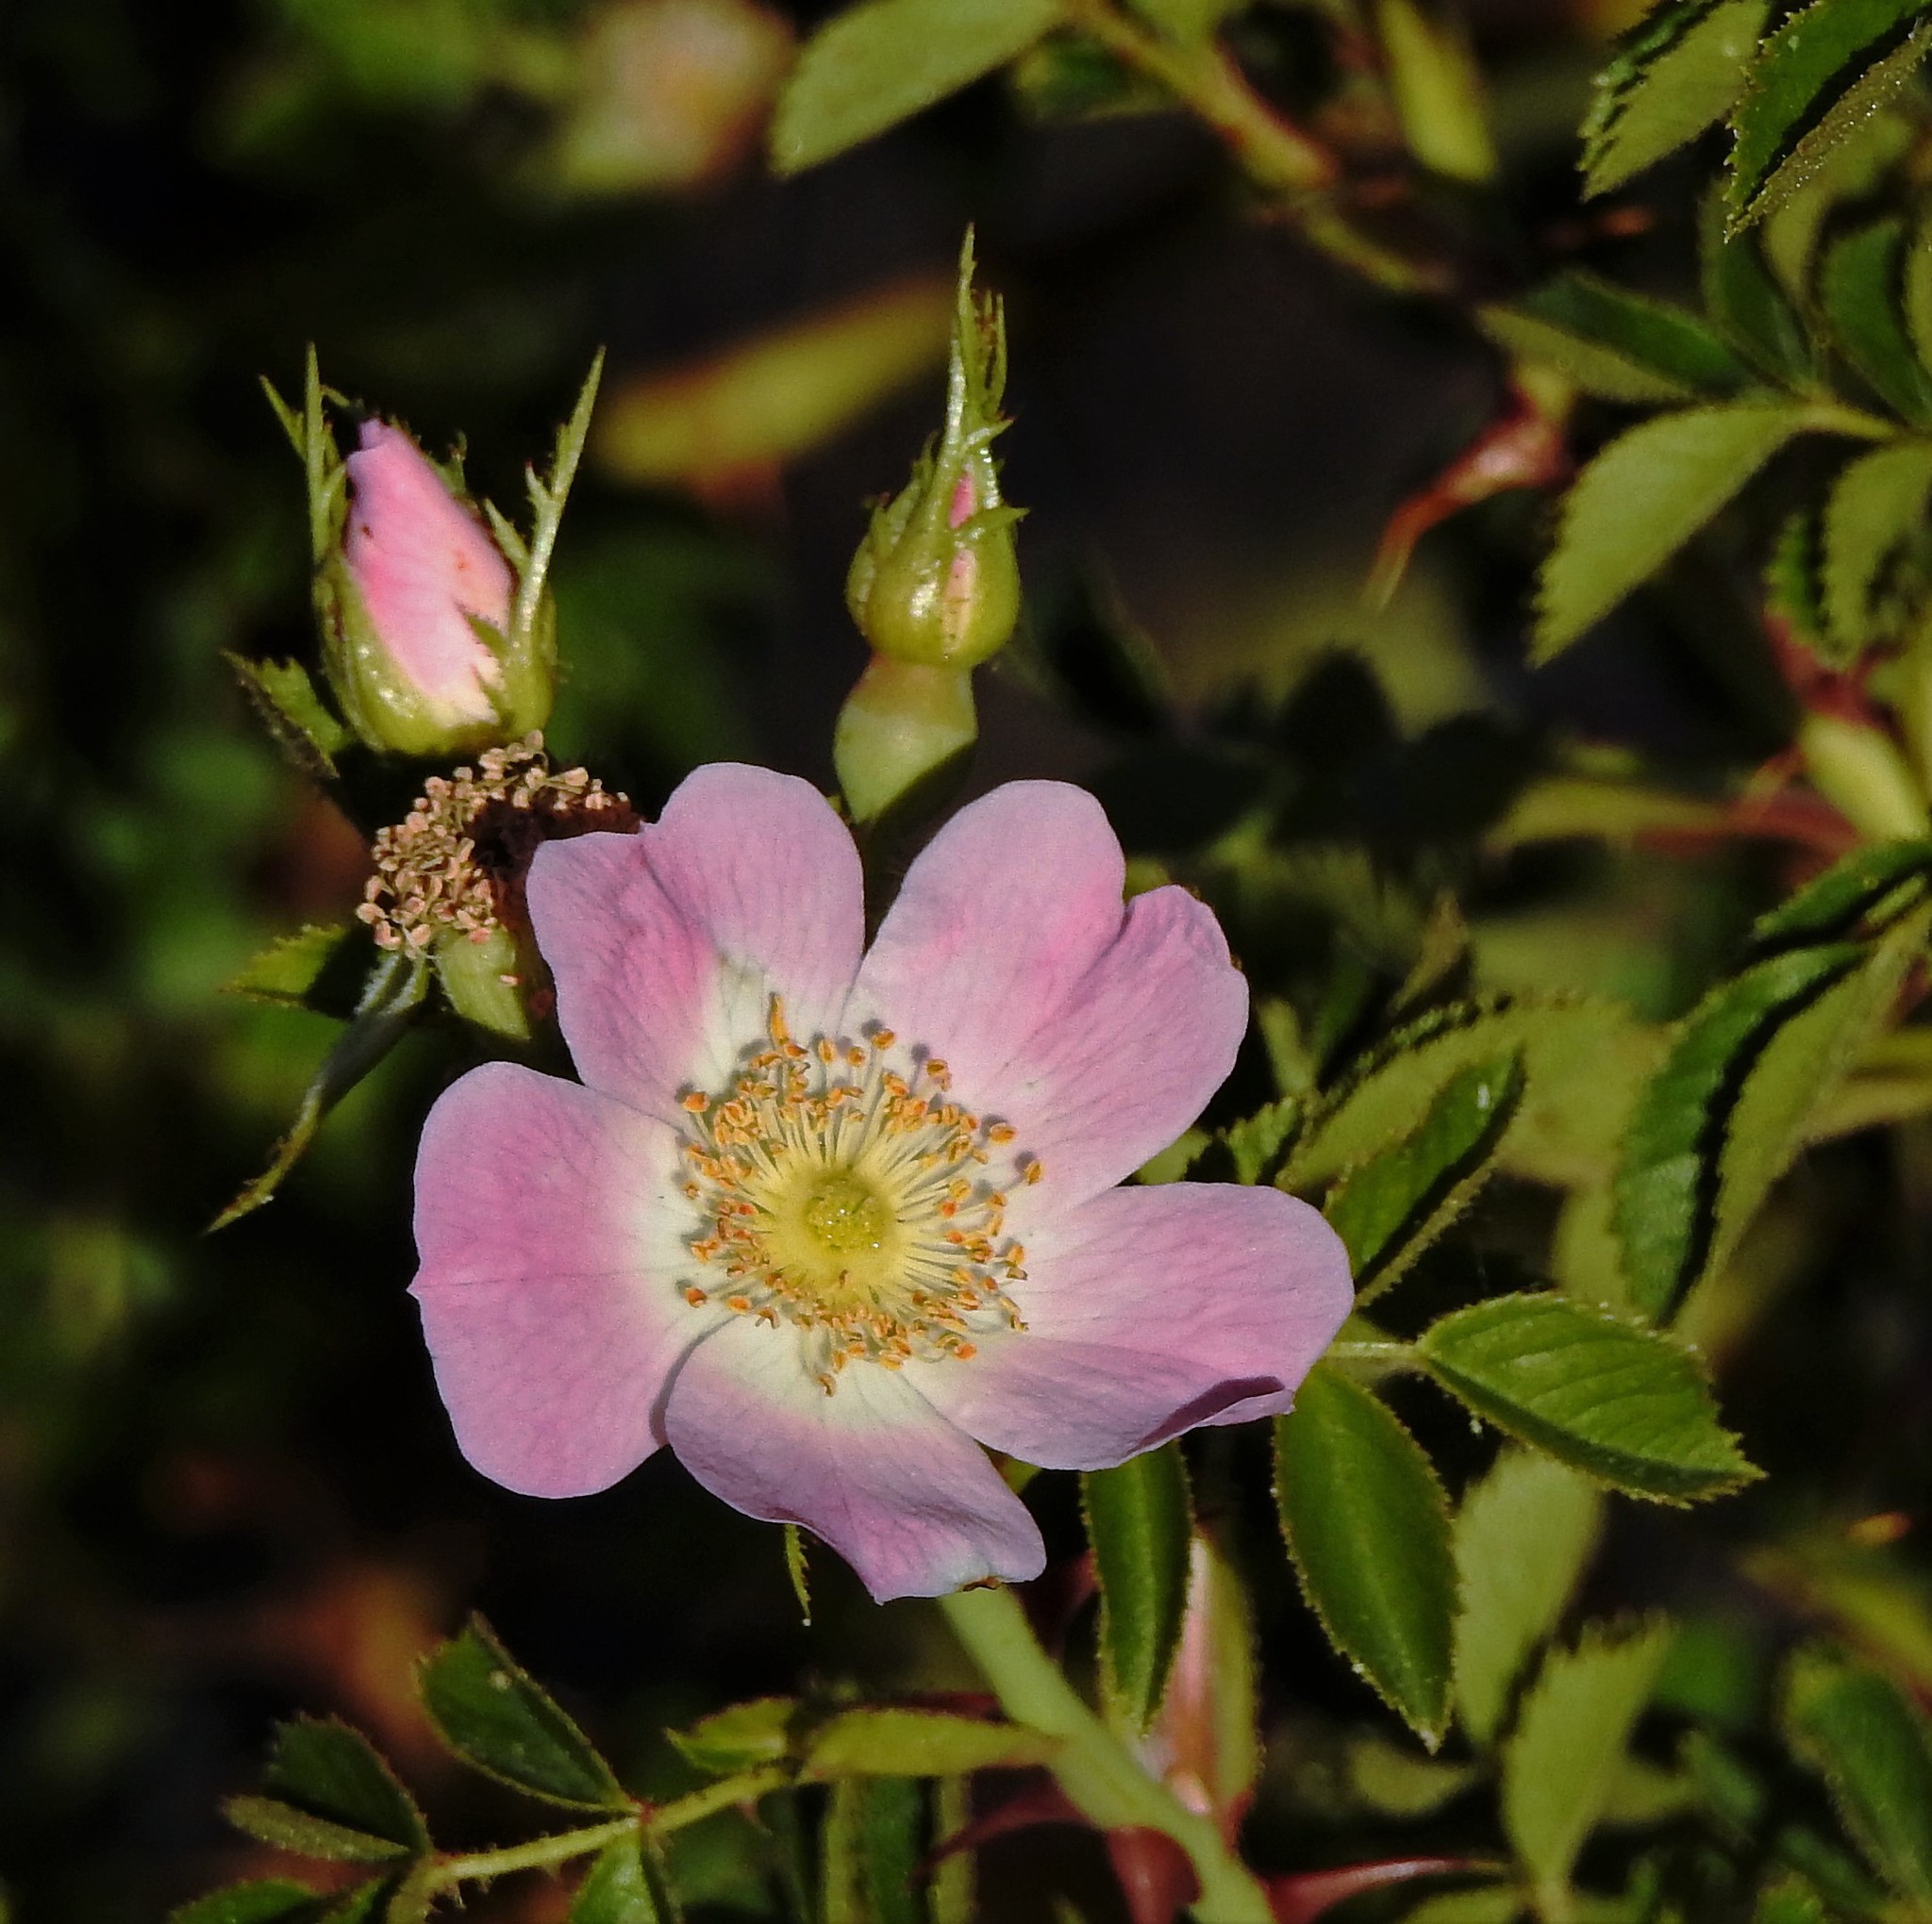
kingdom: Plantae
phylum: Tracheophyta
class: Magnoliopsida
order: Rosales
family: Rosaceae
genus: Rosa
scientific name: Rosa rubiginosa
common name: Sweet-briar
